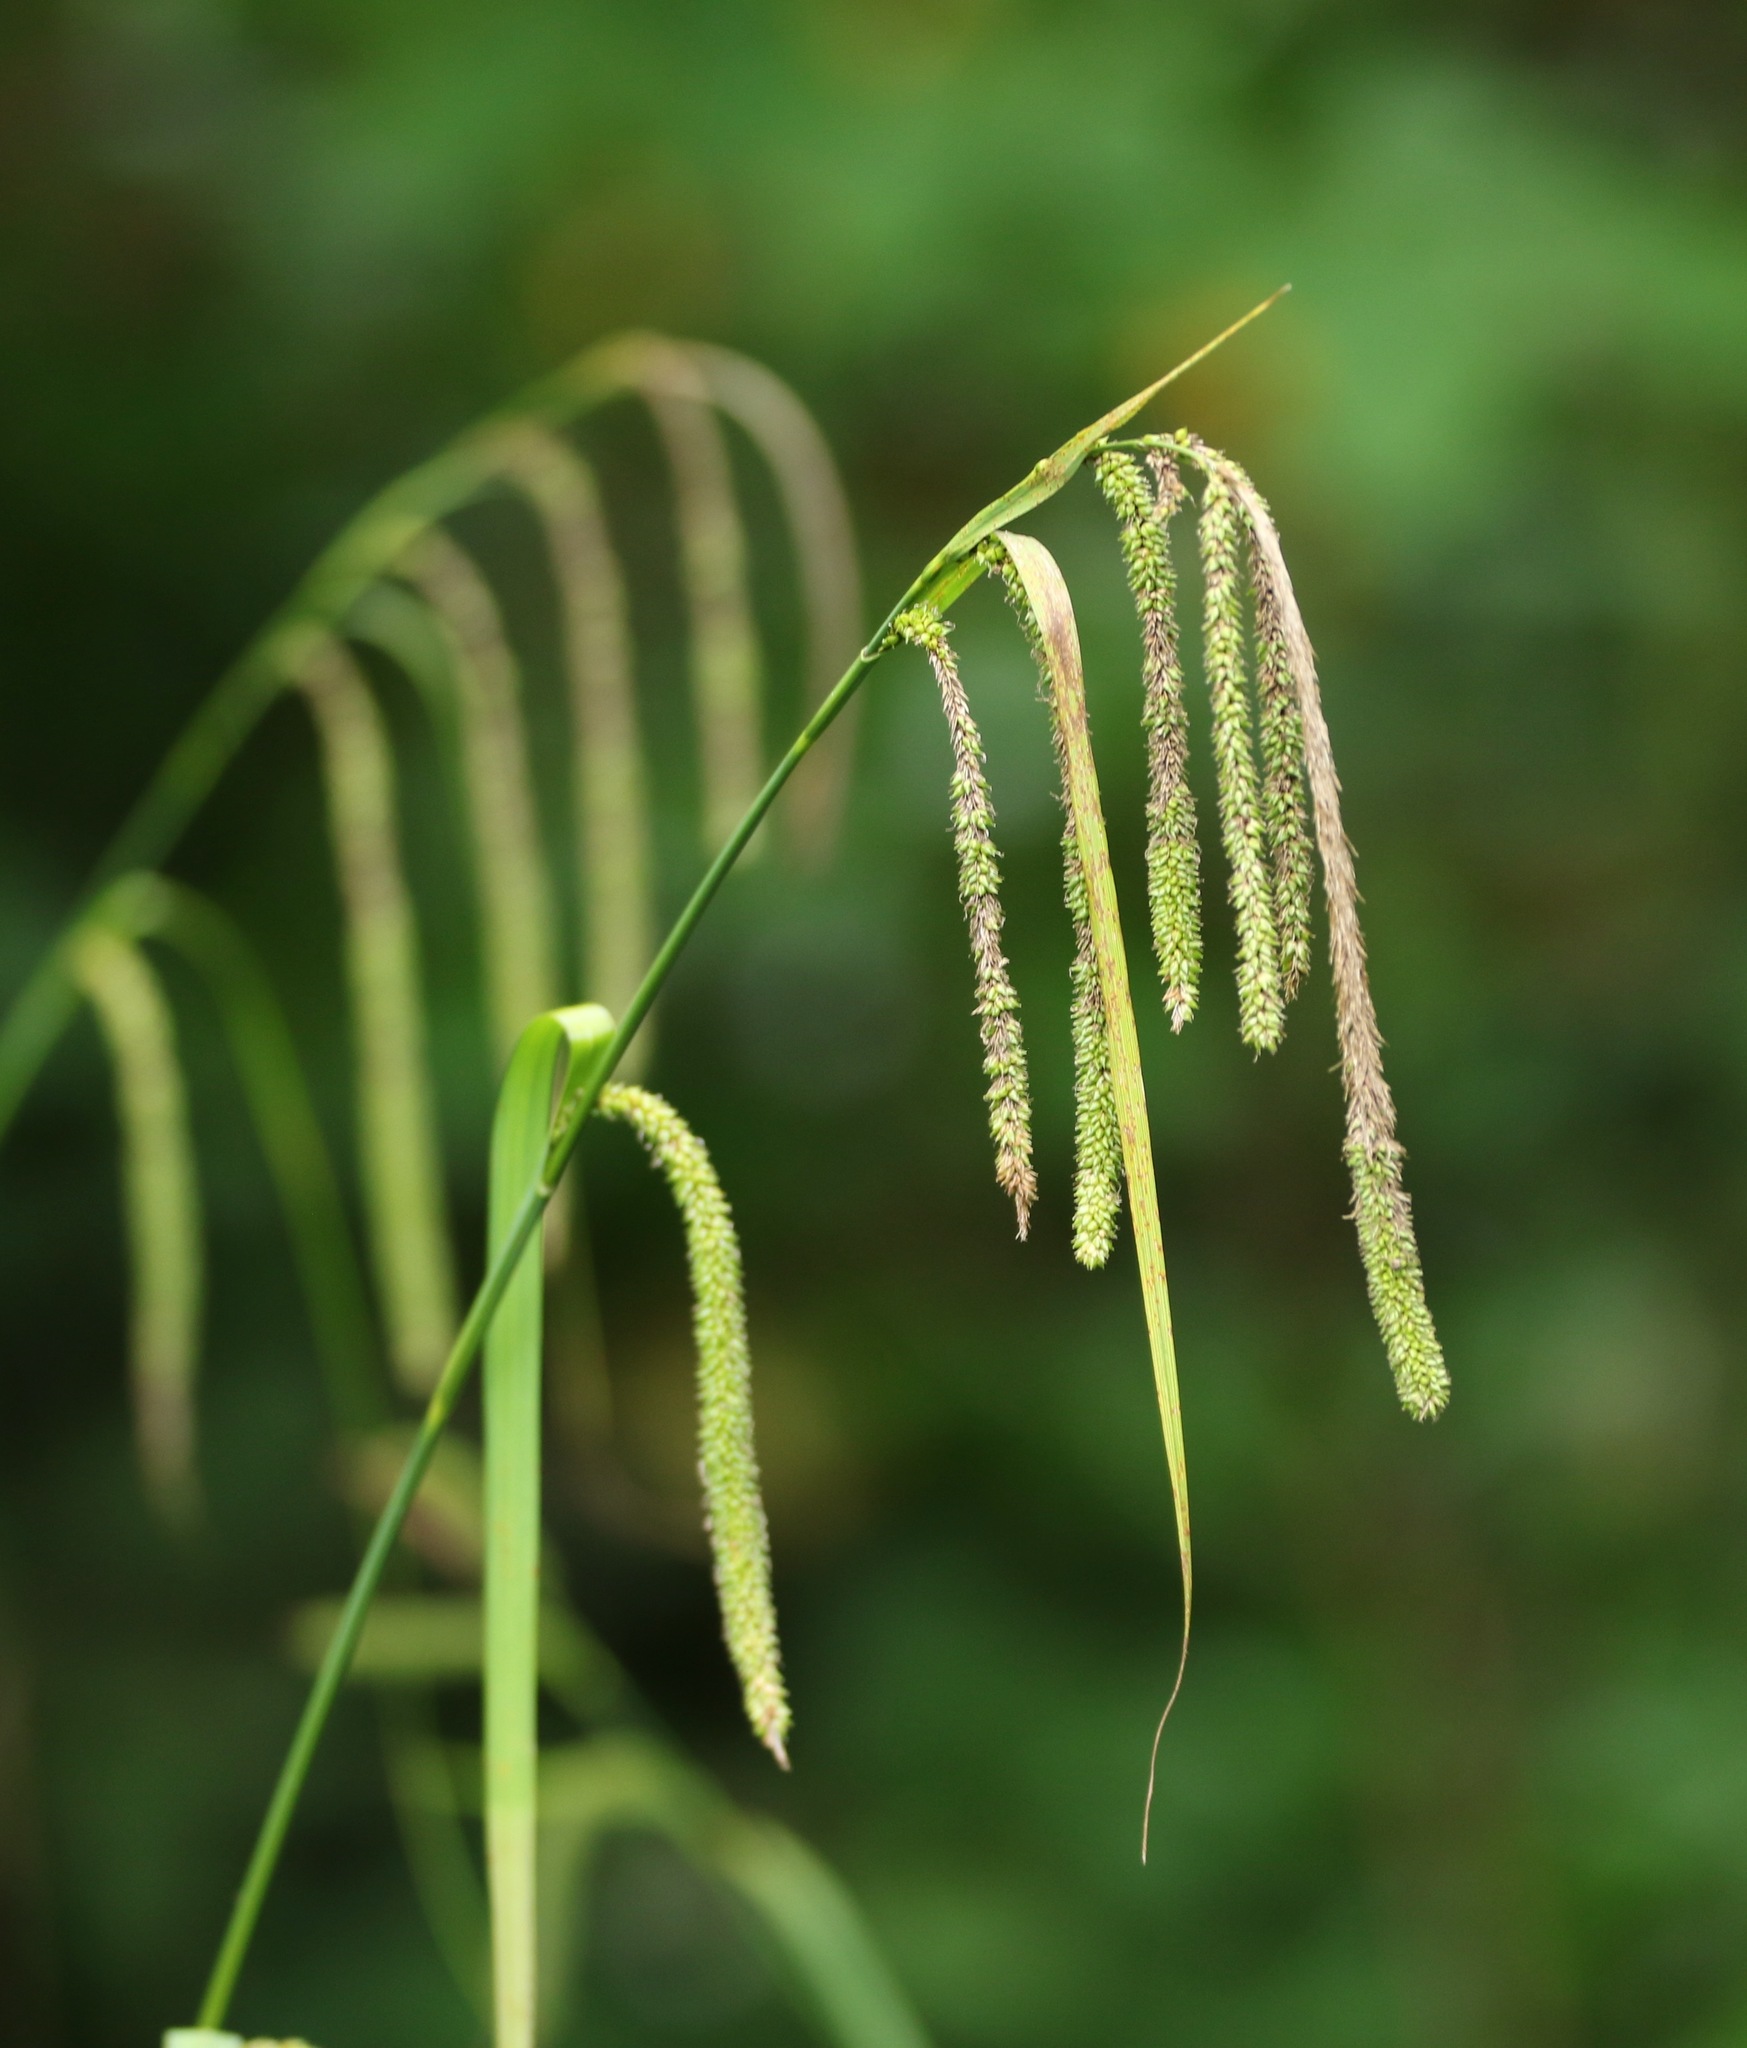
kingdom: Plantae
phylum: Tracheophyta
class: Liliopsida
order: Poales
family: Cyperaceae
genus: Carex
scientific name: Carex pendula
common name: Pendulous sedge
